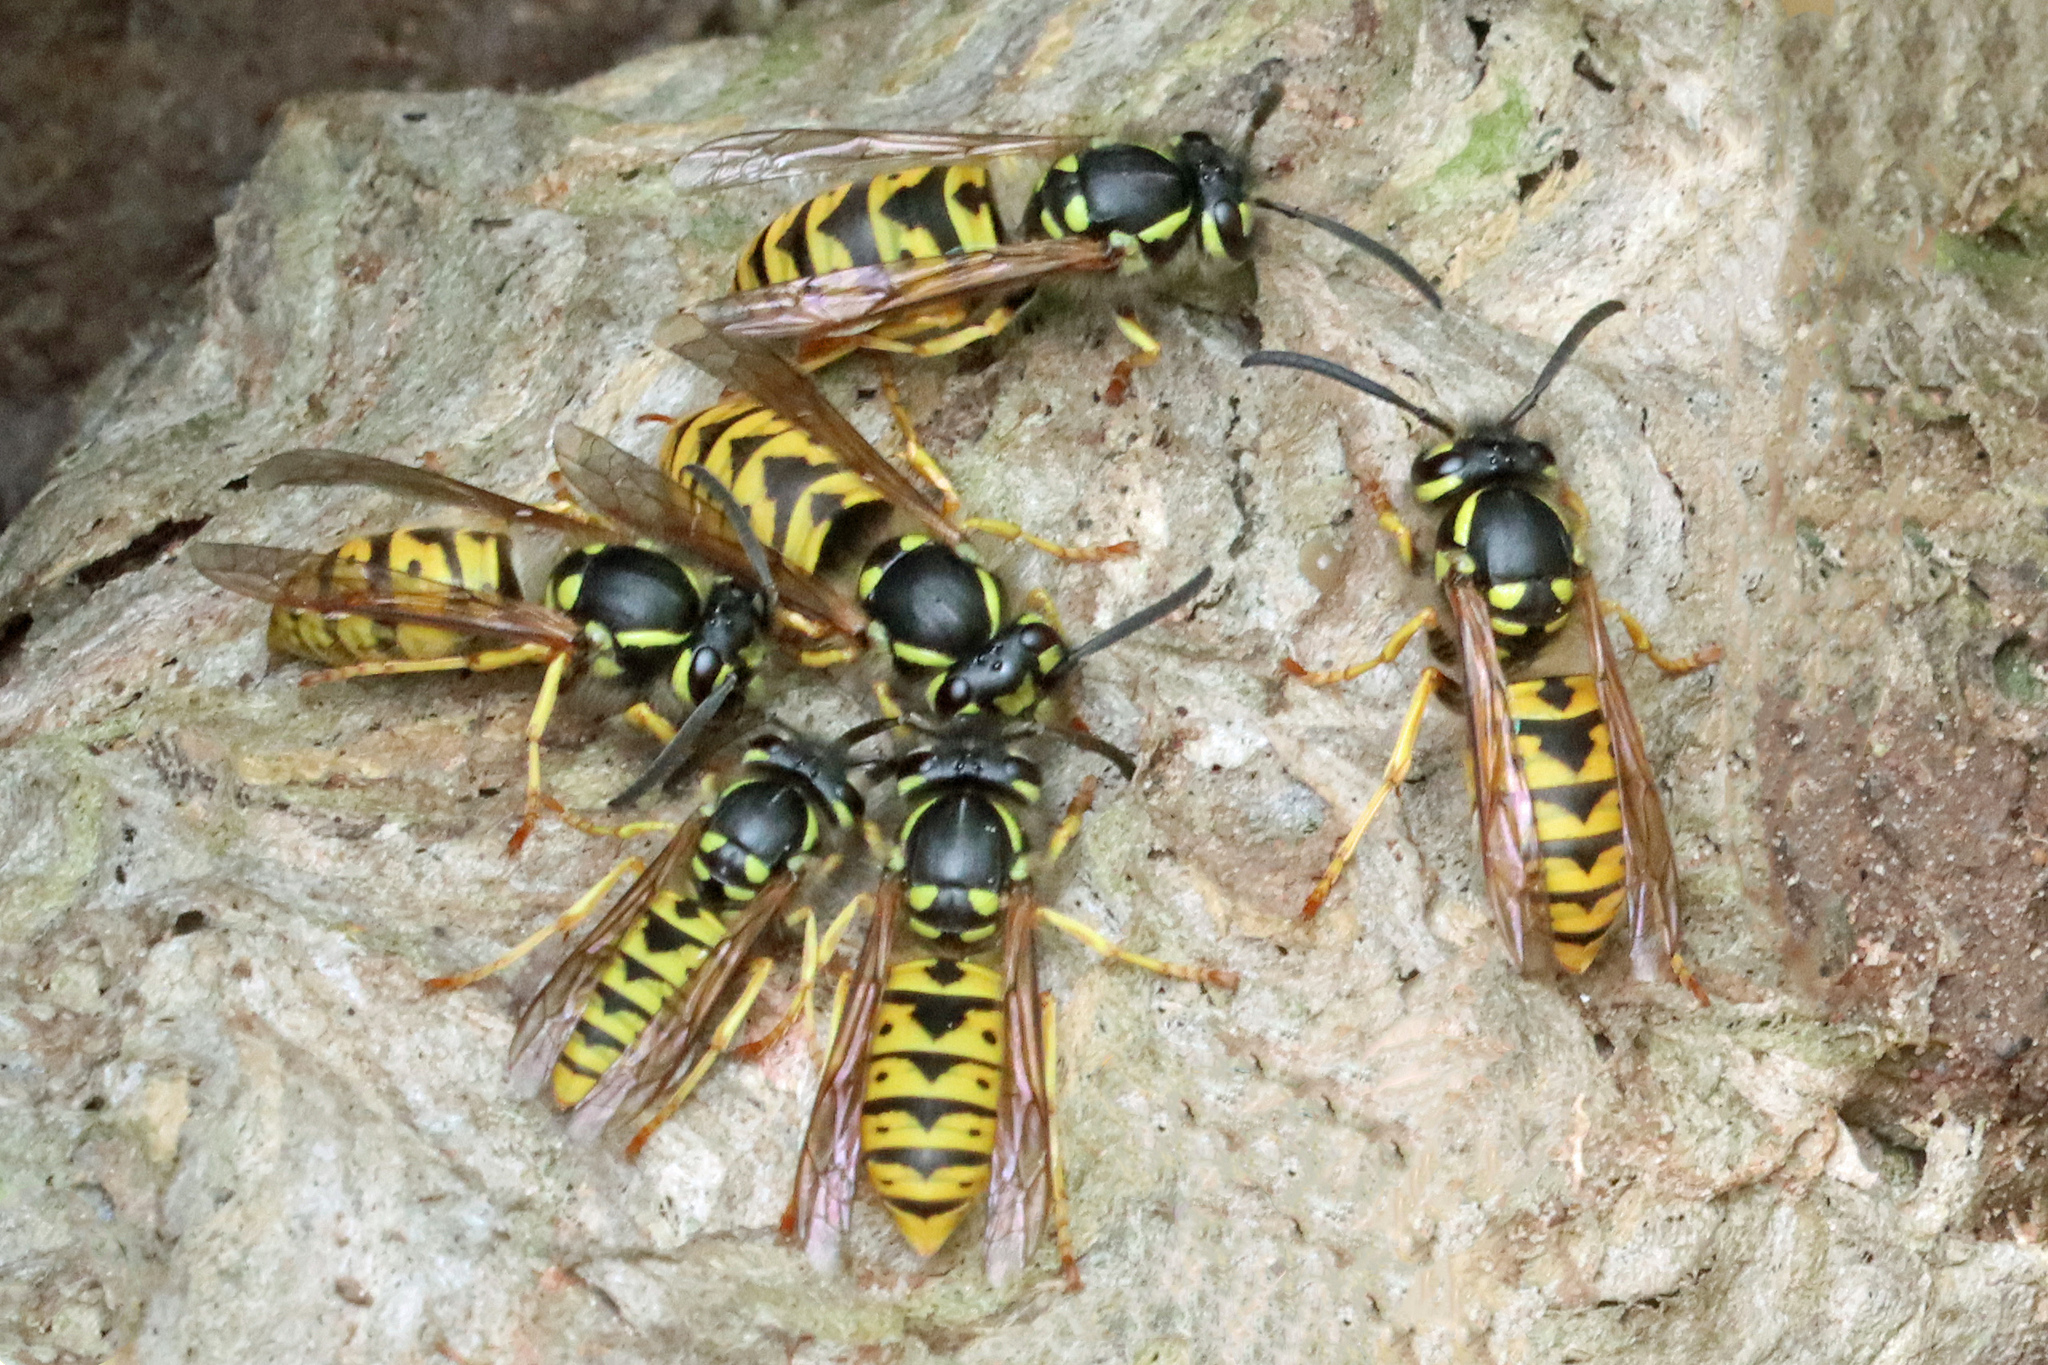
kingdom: Animalia
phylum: Arthropoda
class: Insecta
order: Hymenoptera
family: Vespidae
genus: Vespula
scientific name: Vespula germanica
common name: German wasp
